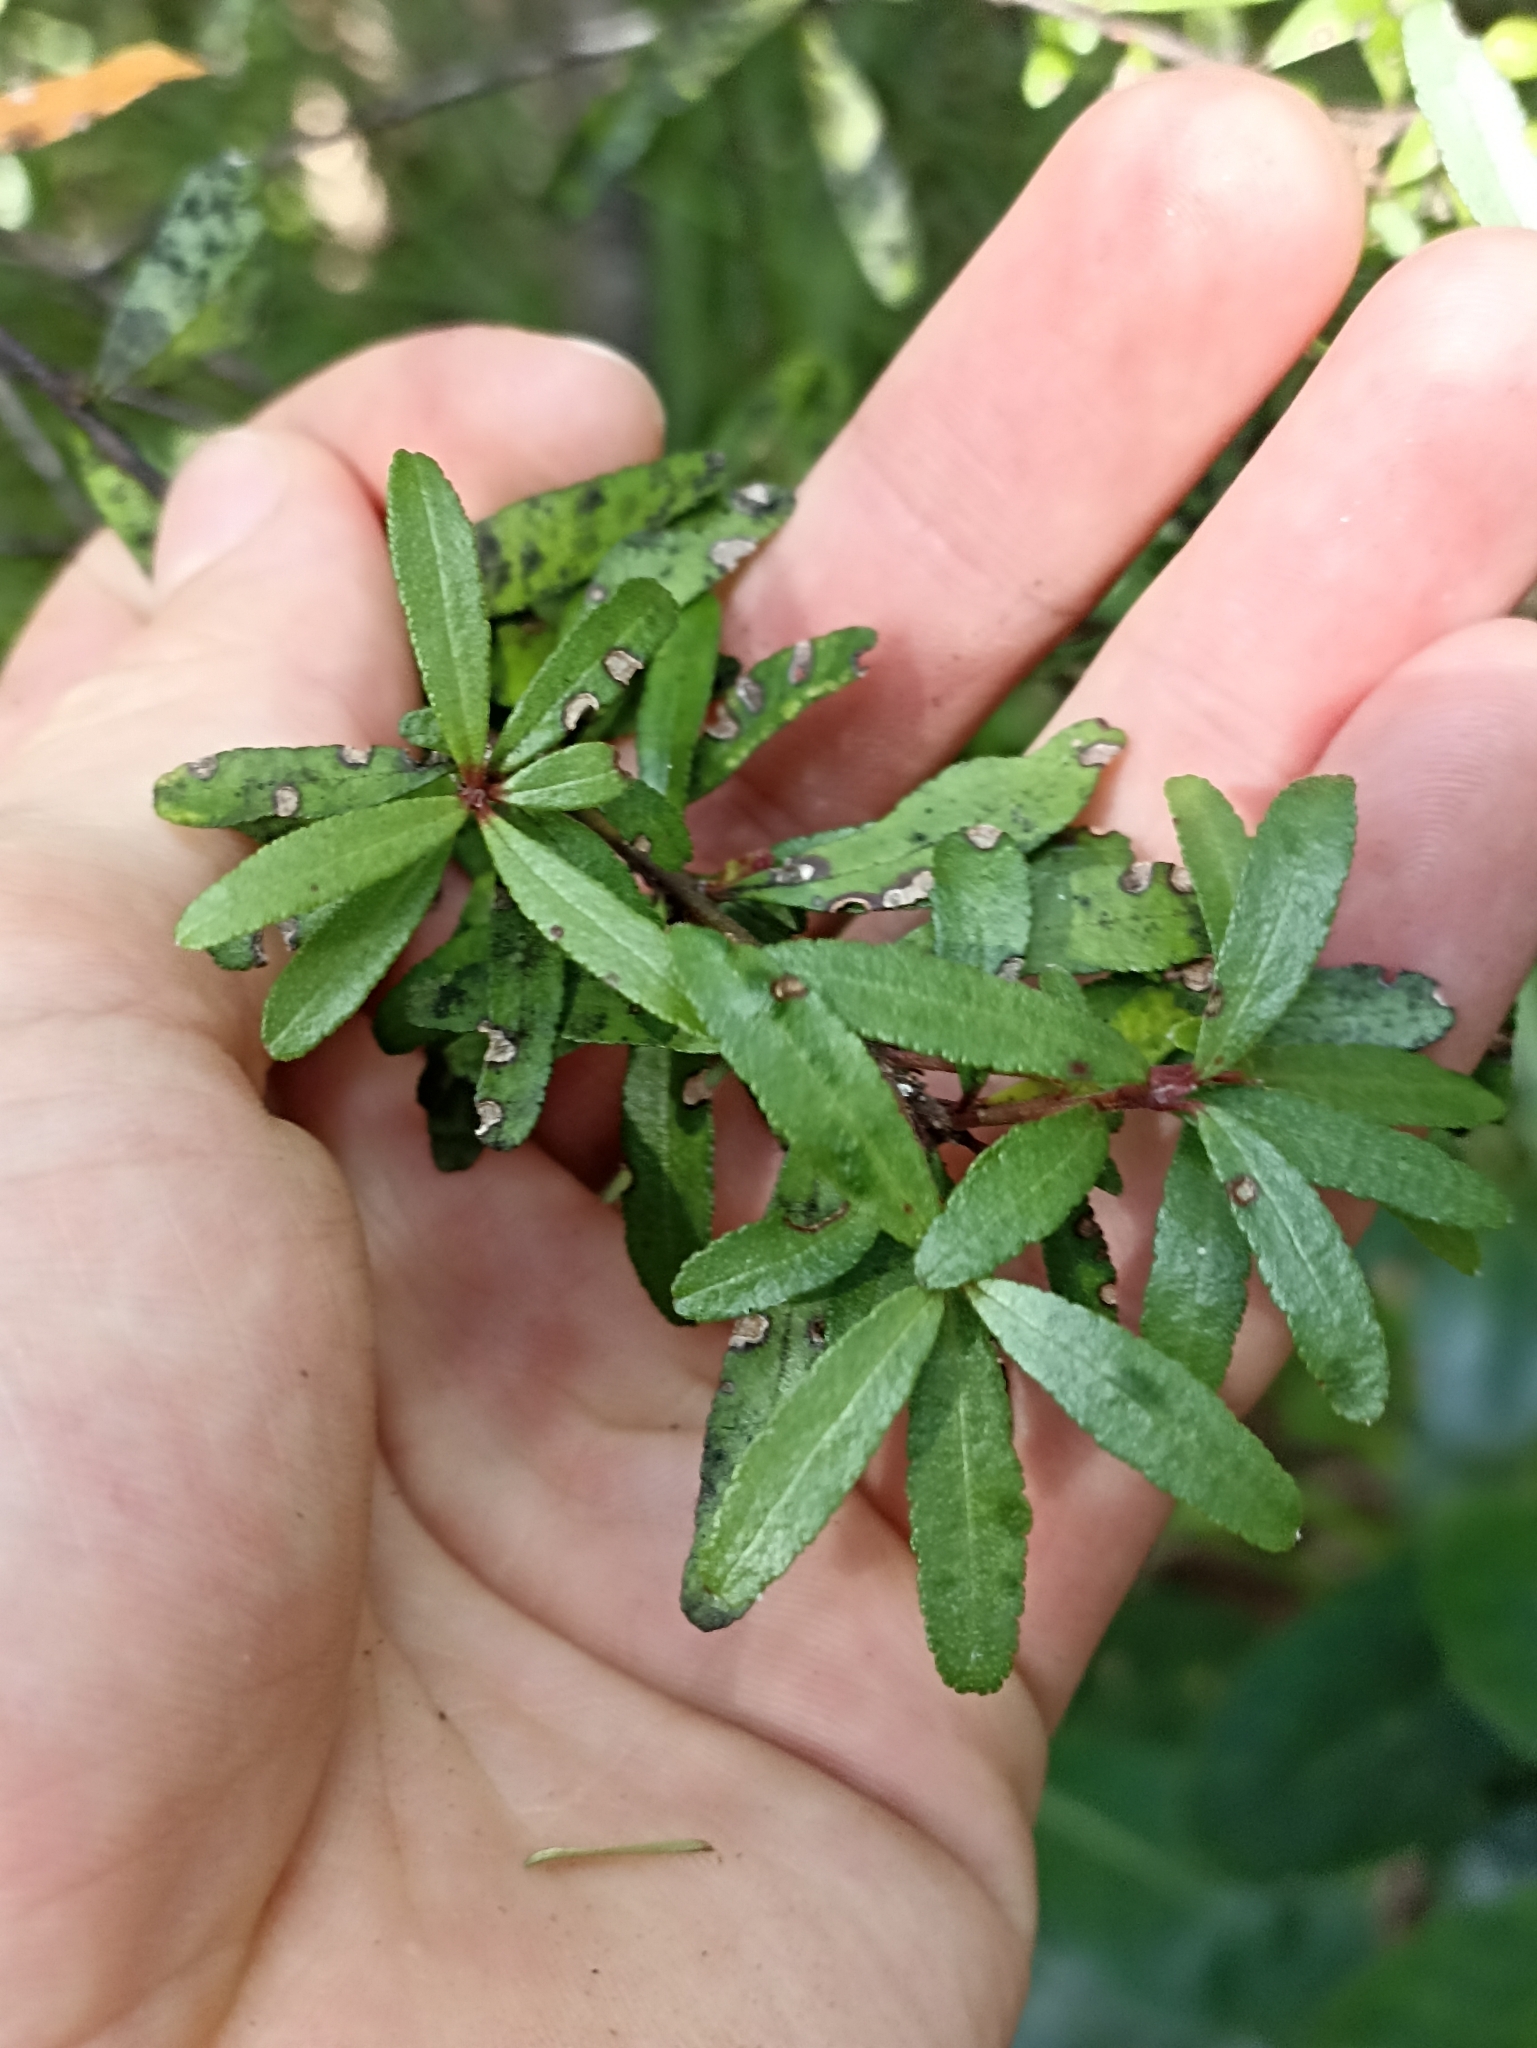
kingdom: Plantae
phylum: Tracheophyta
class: Magnoliopsida
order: Sapindales
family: Rutaceae
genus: Leionema
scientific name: Leionema nudum
